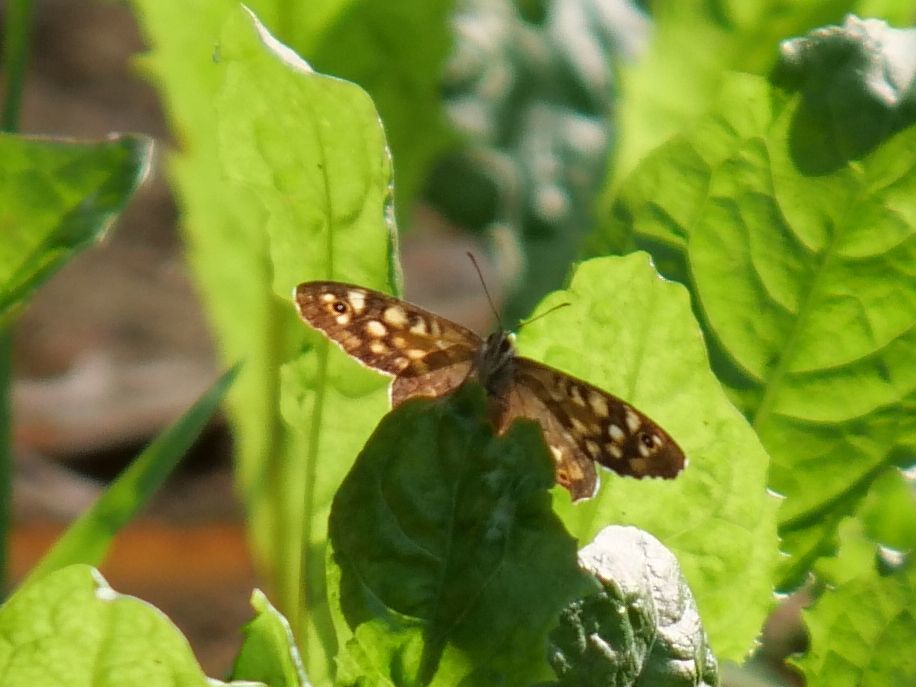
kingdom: Animalia
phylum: Arthropoda
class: Insecta
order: Lepidoptera
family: Nymphalidae
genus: Pararge
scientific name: Pararge aegeria
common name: Speckled wood
